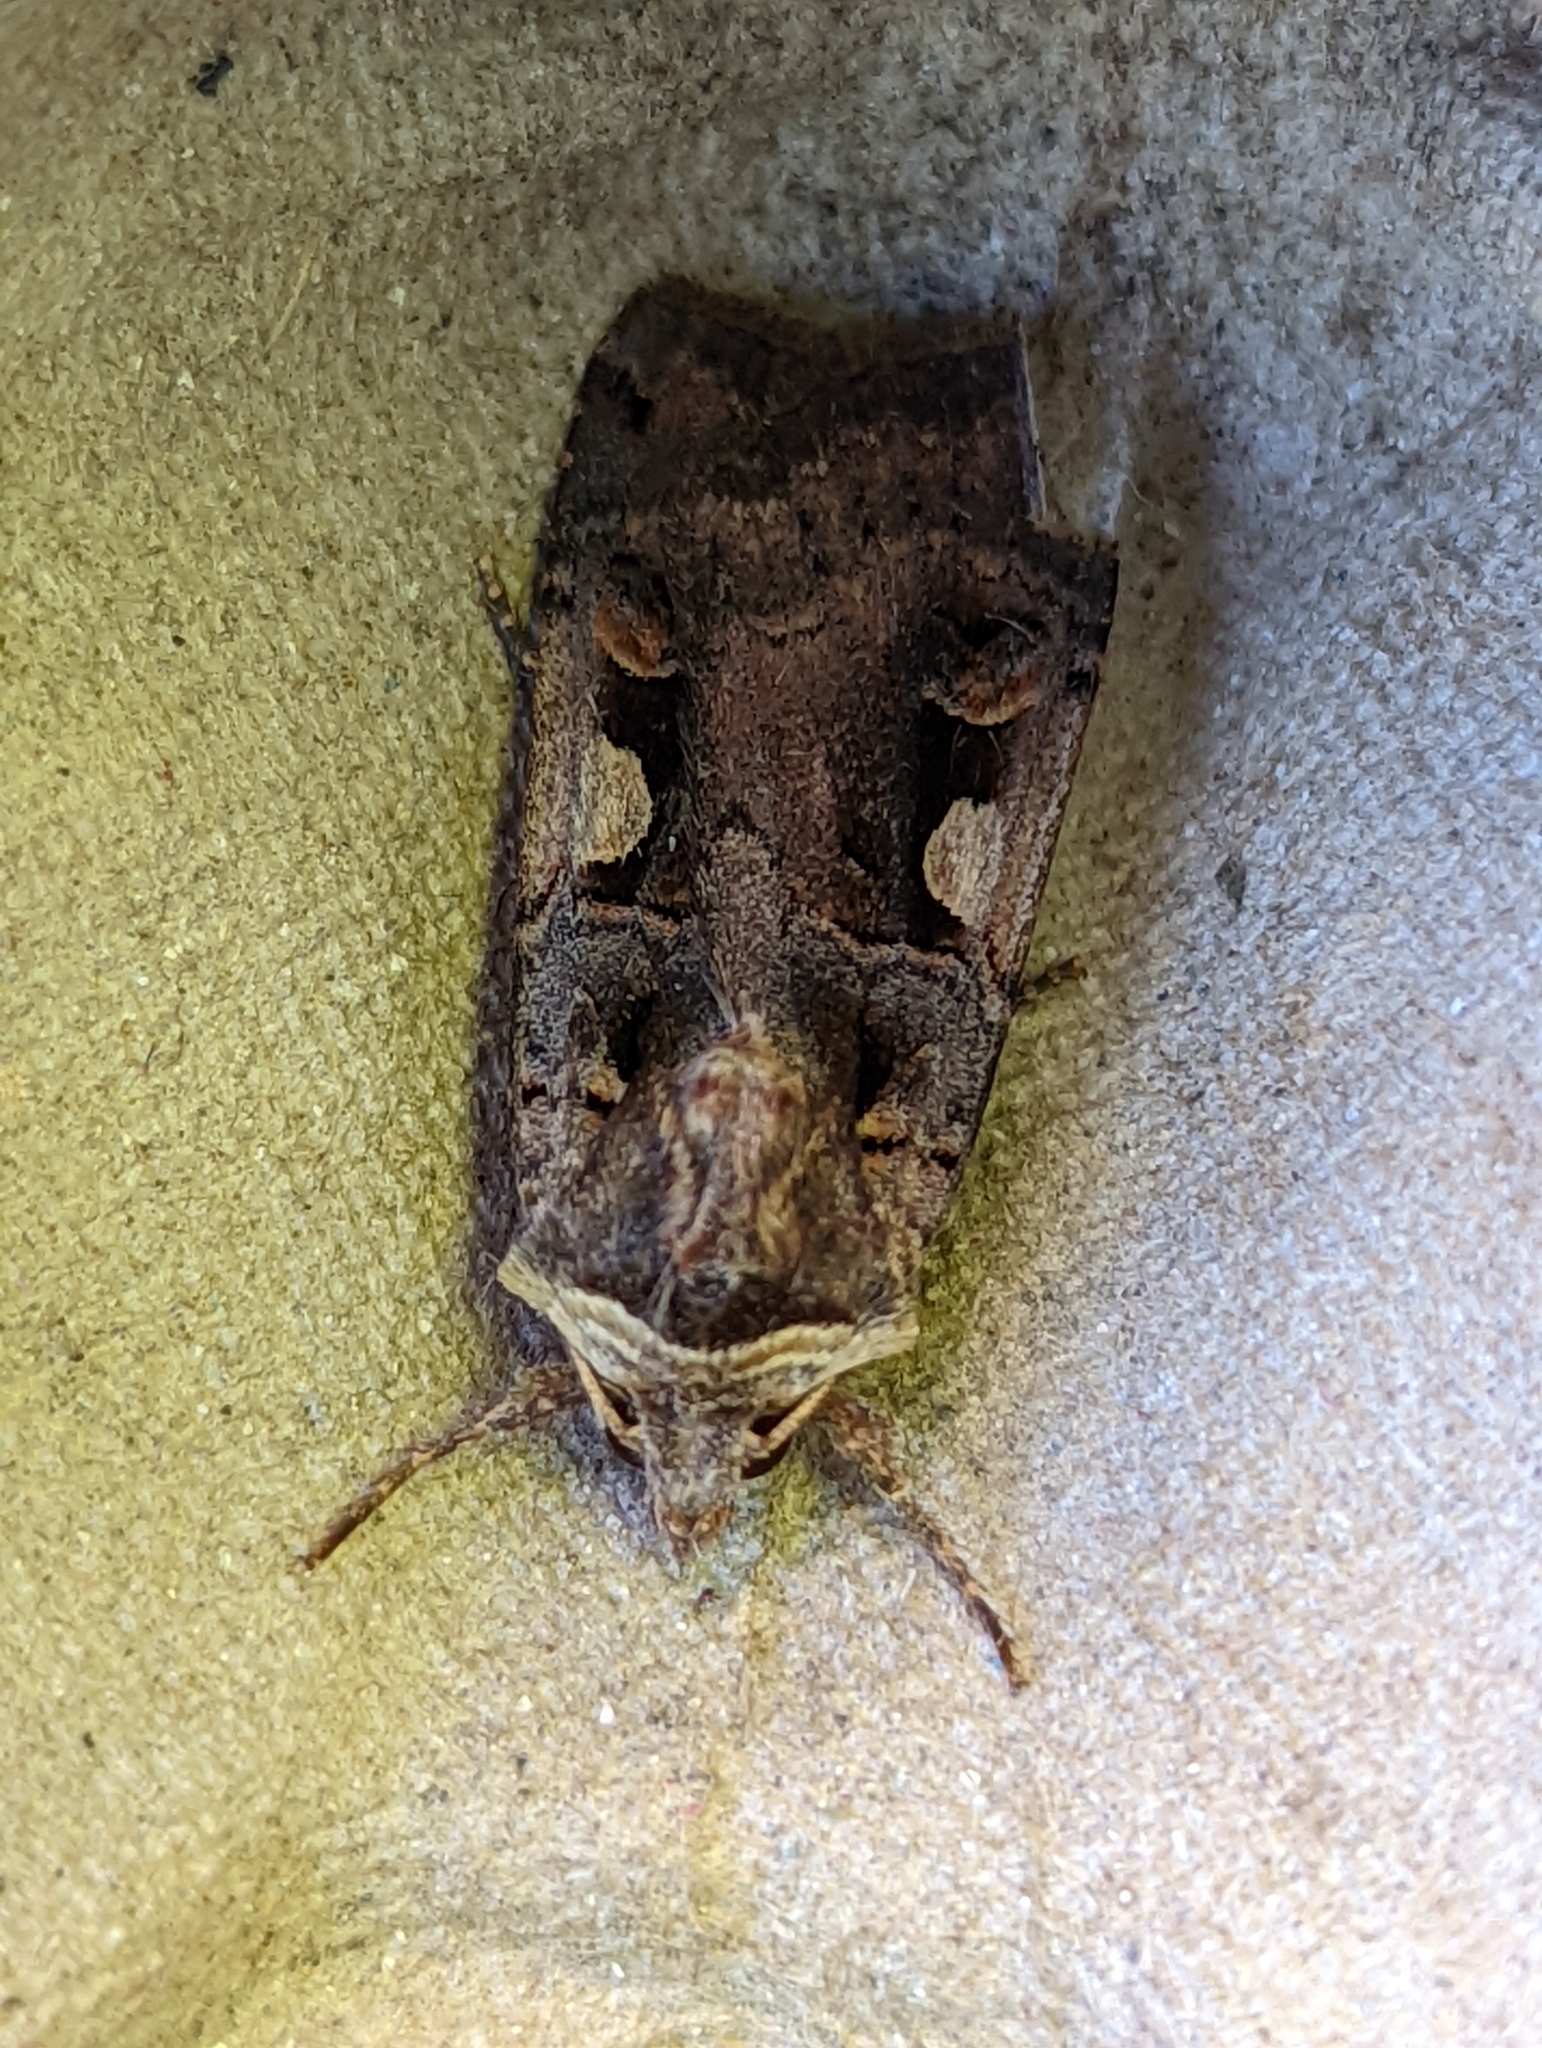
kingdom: Animalia
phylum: Arthropoda
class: Insecta
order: Lepidoptera
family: Noctuidae
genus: Xestia
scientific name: Xestia c-nigrum
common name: Setaceous hebrew character
